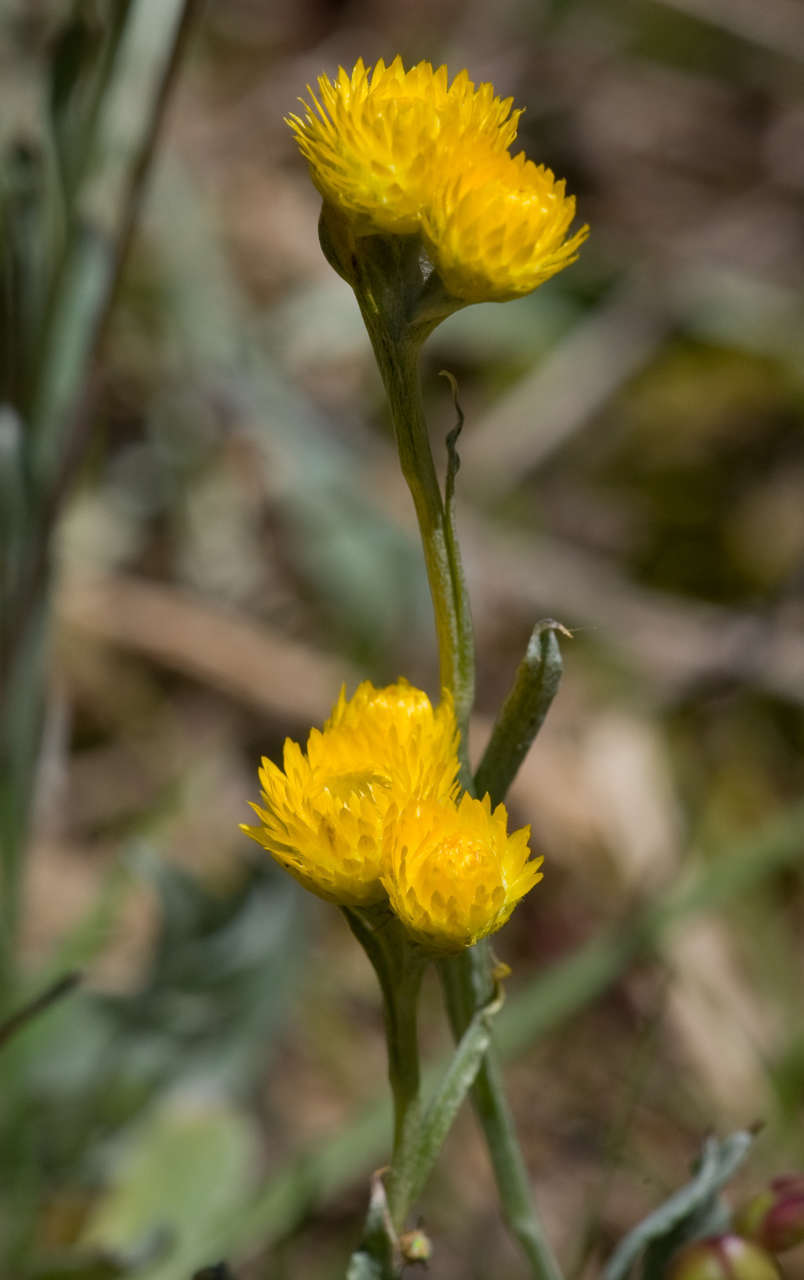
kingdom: Plantae
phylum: Tracheophyta
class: Magnoliopsida
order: Asterales
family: Asteraceae
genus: Chrysocephalum
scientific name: Chrysocephalum apiculatum
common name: Common everlasting
